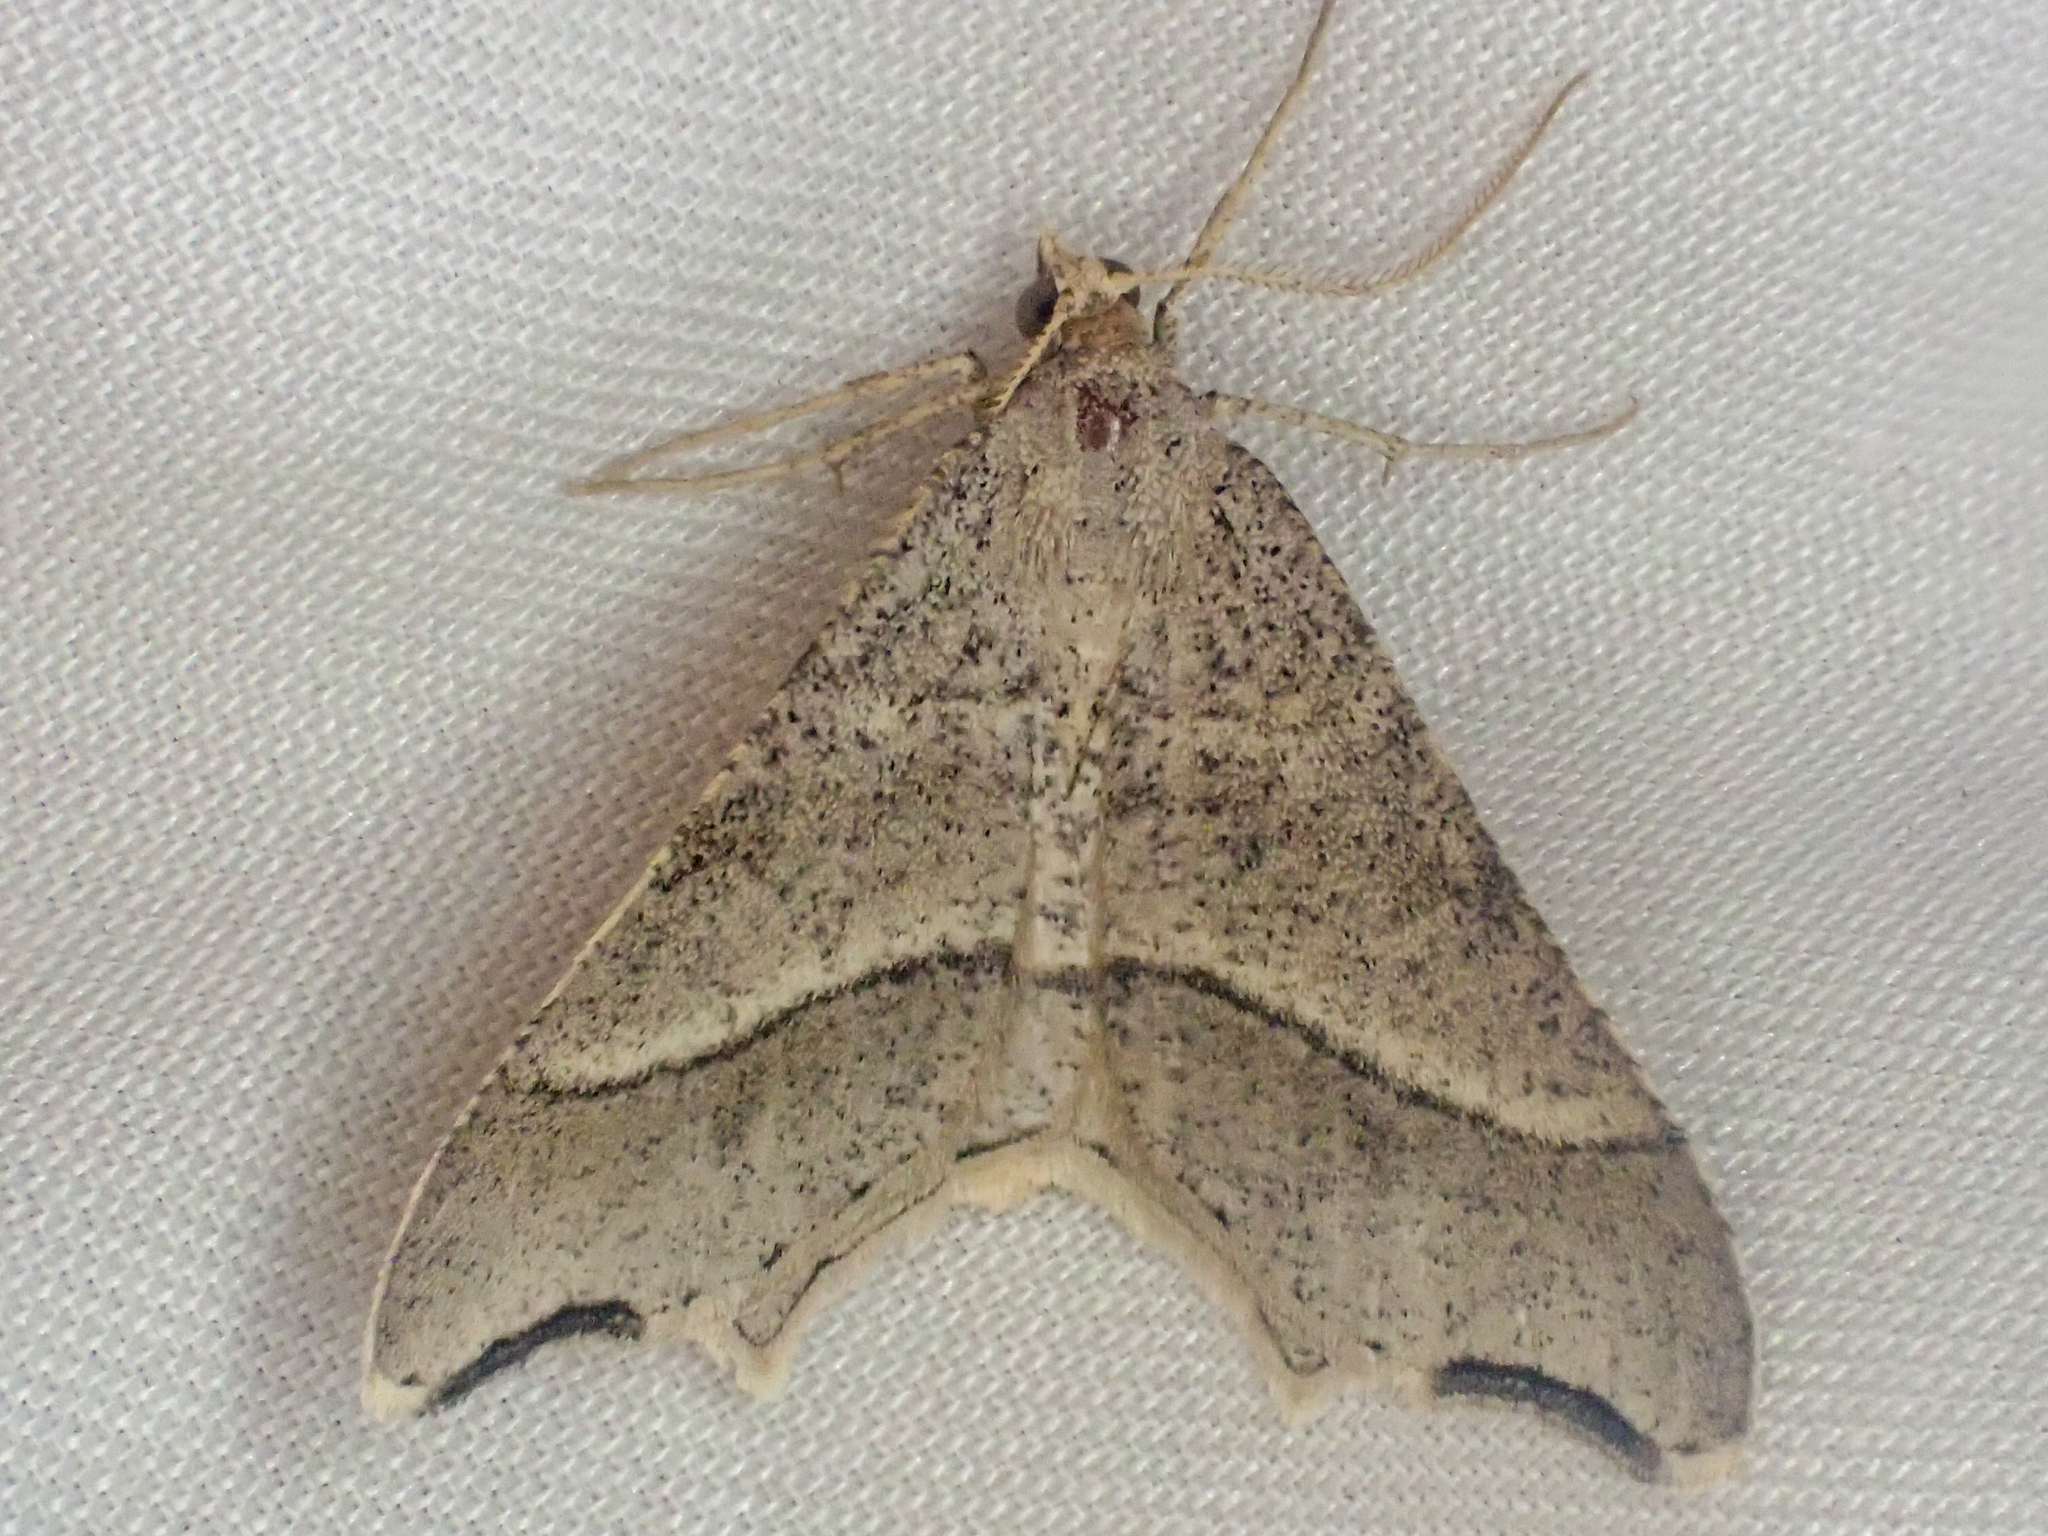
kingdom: Animalia
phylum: Arthropoda
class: Insecta
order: Lepidoptera
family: Geometridae
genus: Macaria
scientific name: Macaria metanemaria
